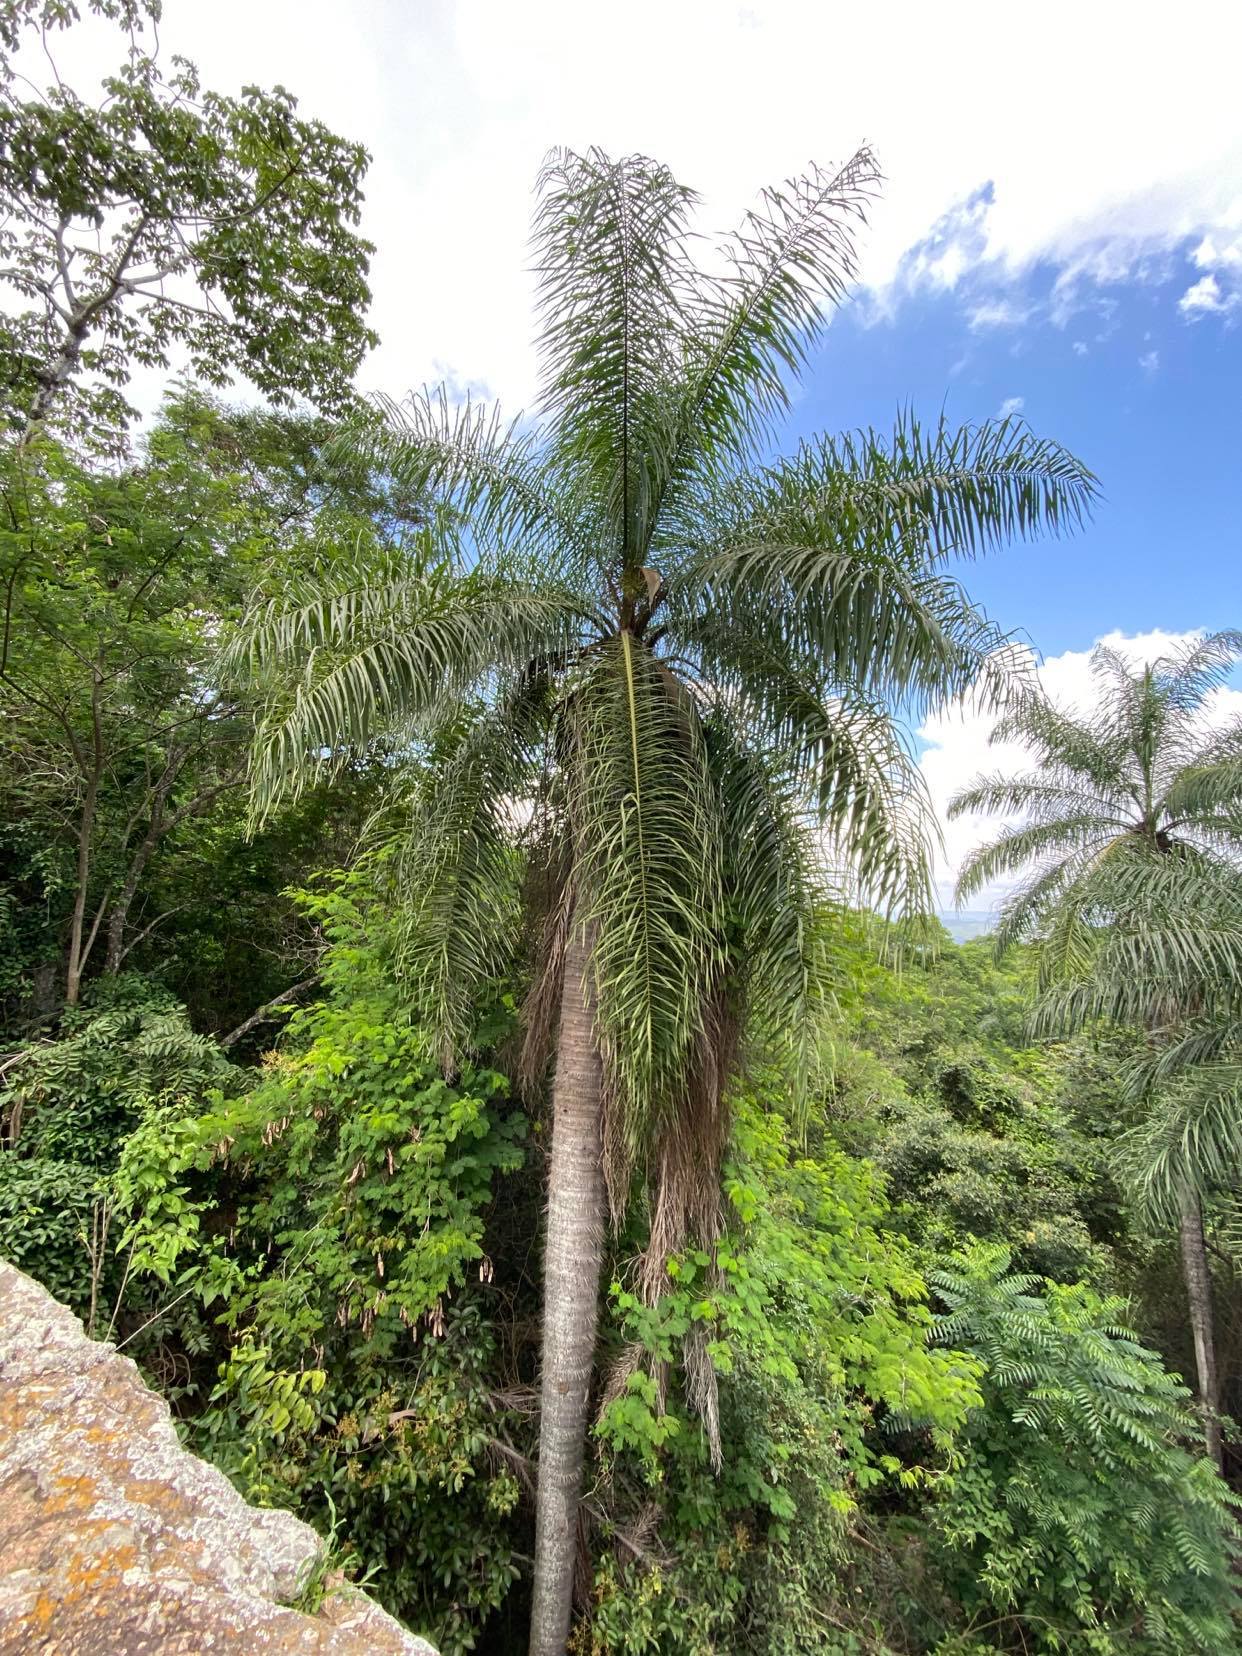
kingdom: Plantae
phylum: Tracheophyta
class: Liliopsida
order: Arecales
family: Arecaceae
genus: Acrocomia
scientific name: Acrocomia intumescens
